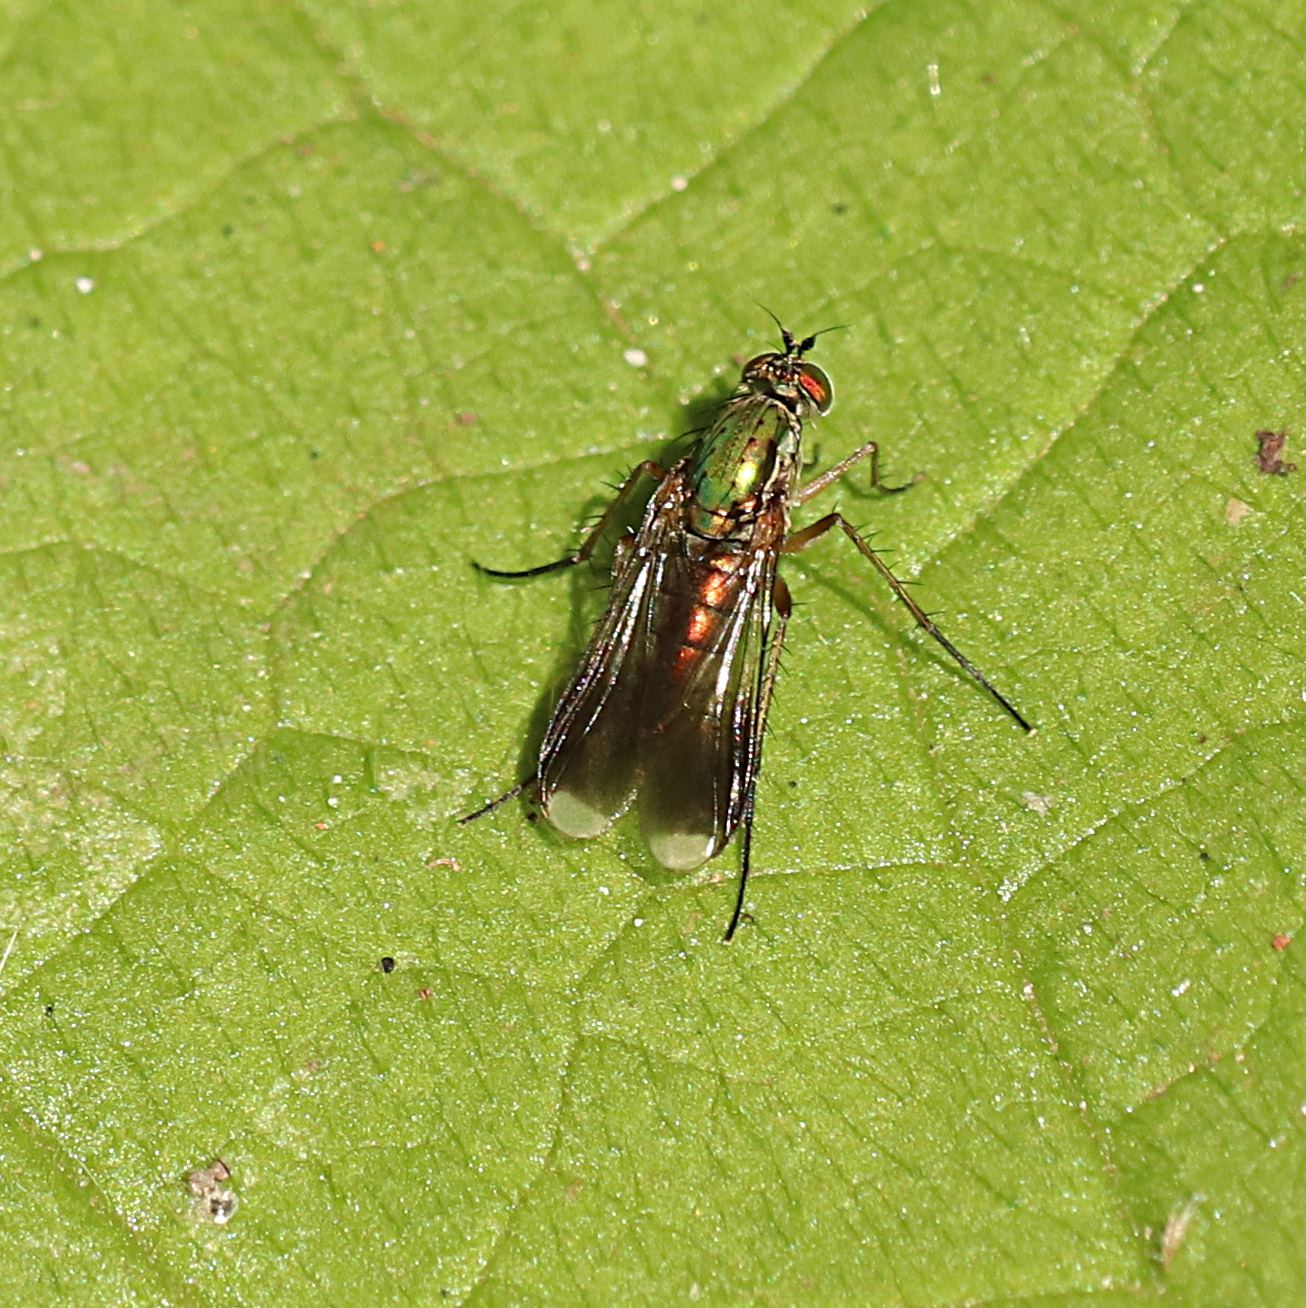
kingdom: Animalia
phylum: Arthropoda
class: Insecta
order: Diptera
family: Dolichopodidae
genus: Poecilobothrus
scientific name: Poecilobothrus nobilitatus
